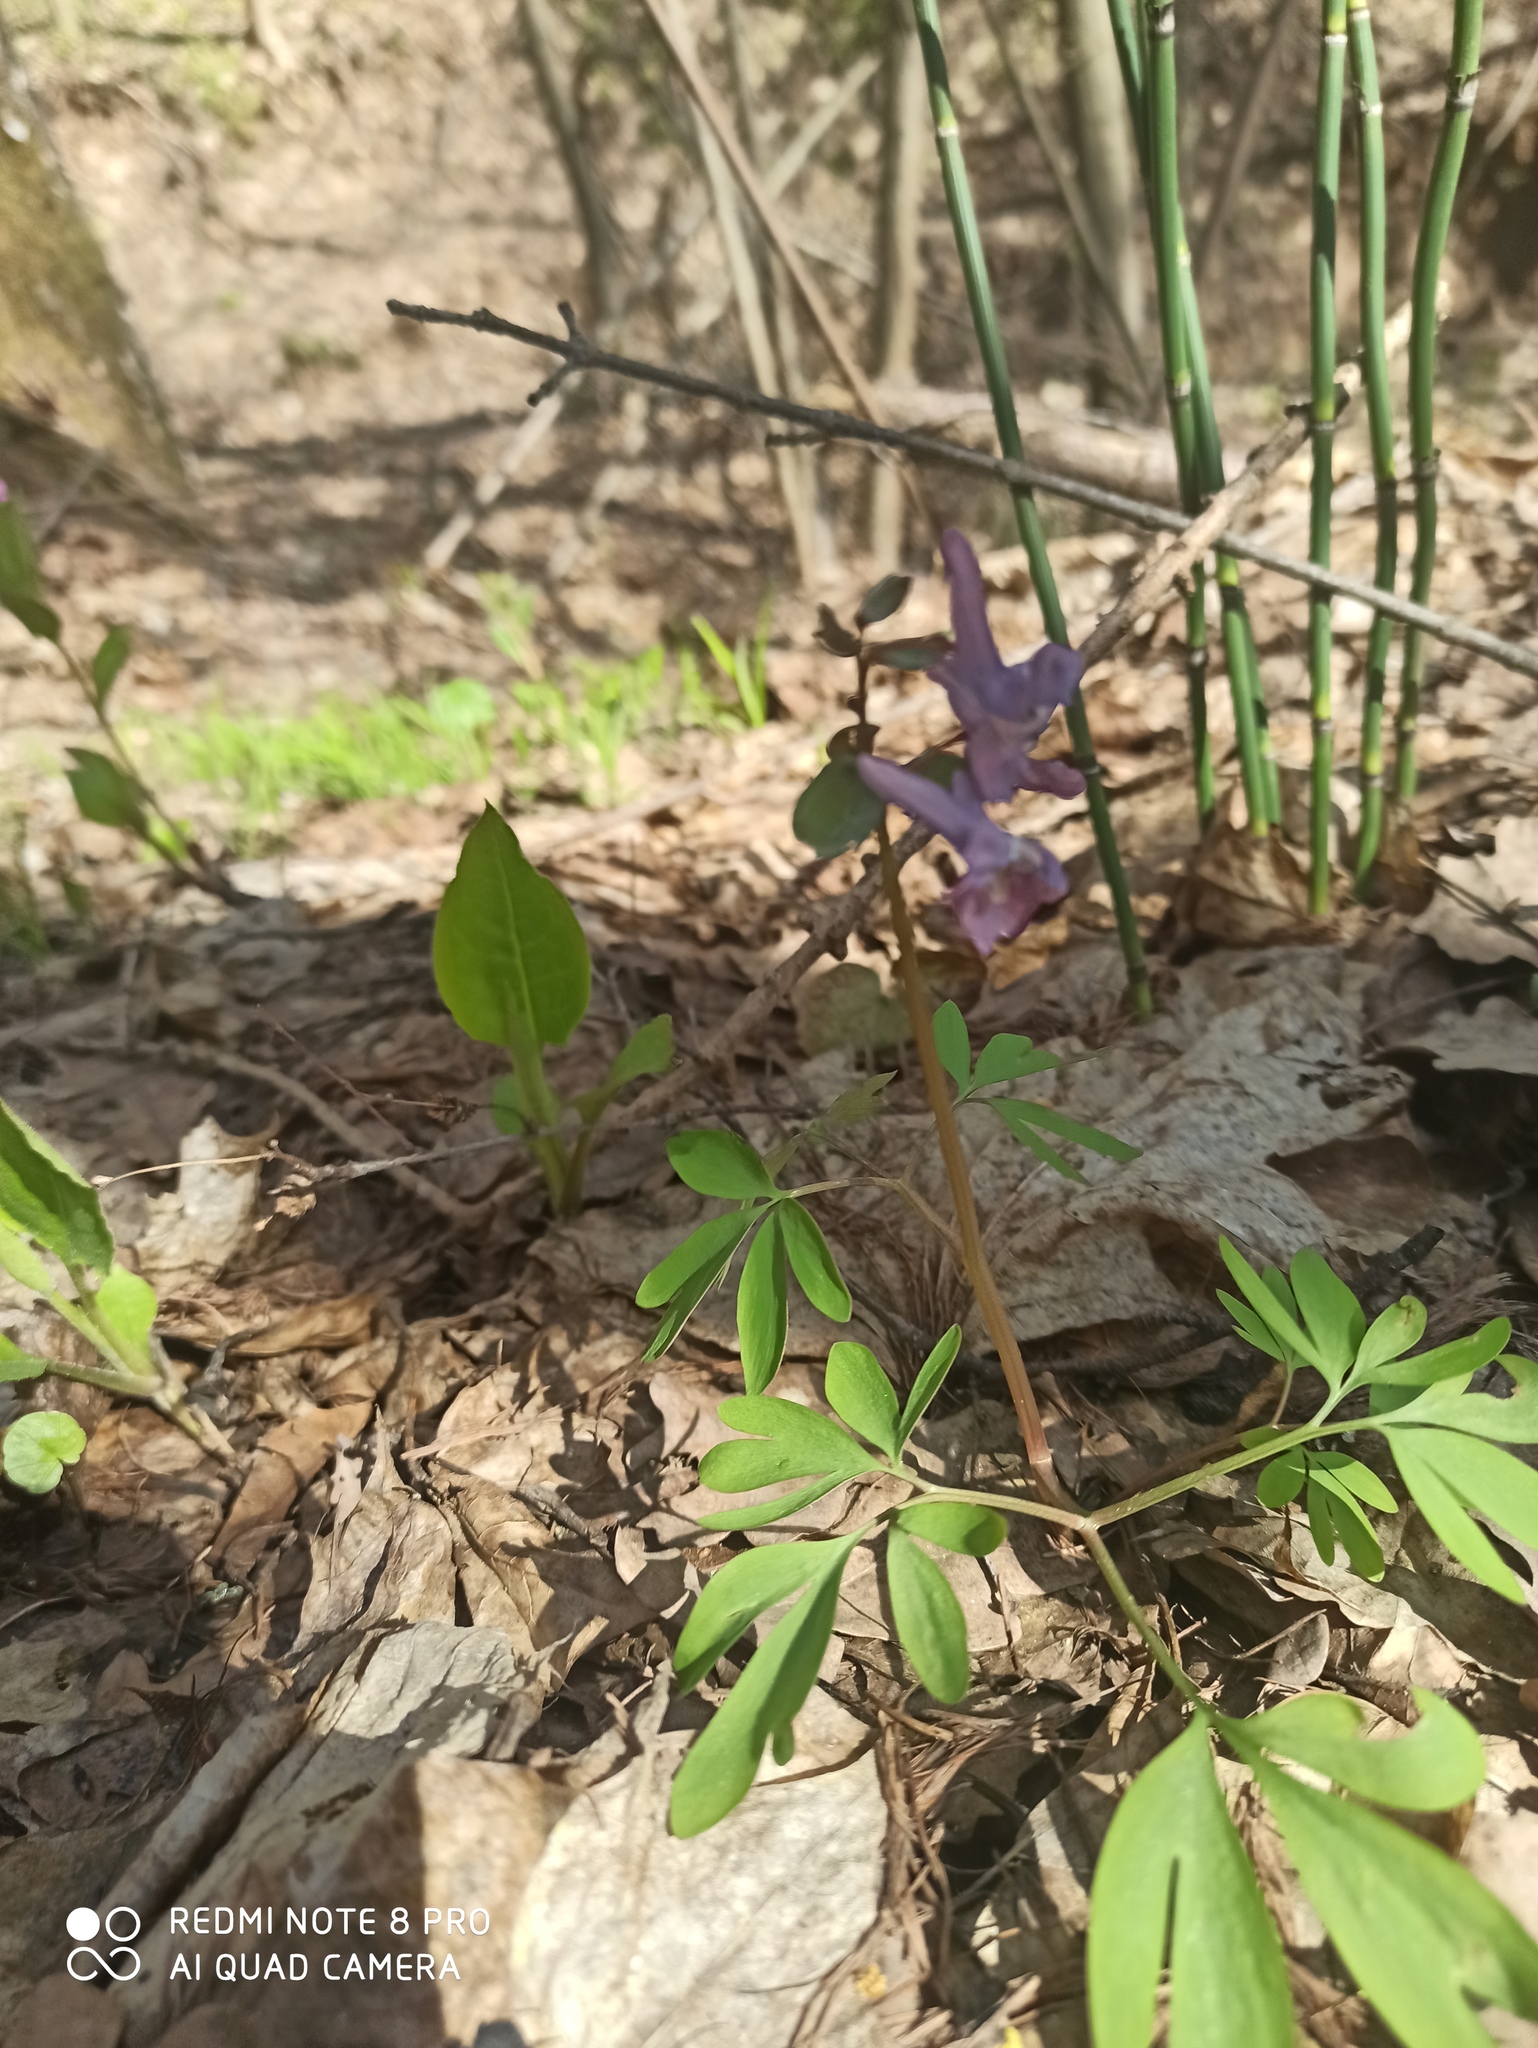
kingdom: Plantae
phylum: Tracheophyta
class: Magnoliopsida
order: Ranunculales
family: Papaveraceae
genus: Corydalis
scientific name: Corydalis solida
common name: Bird-in-a-bush
